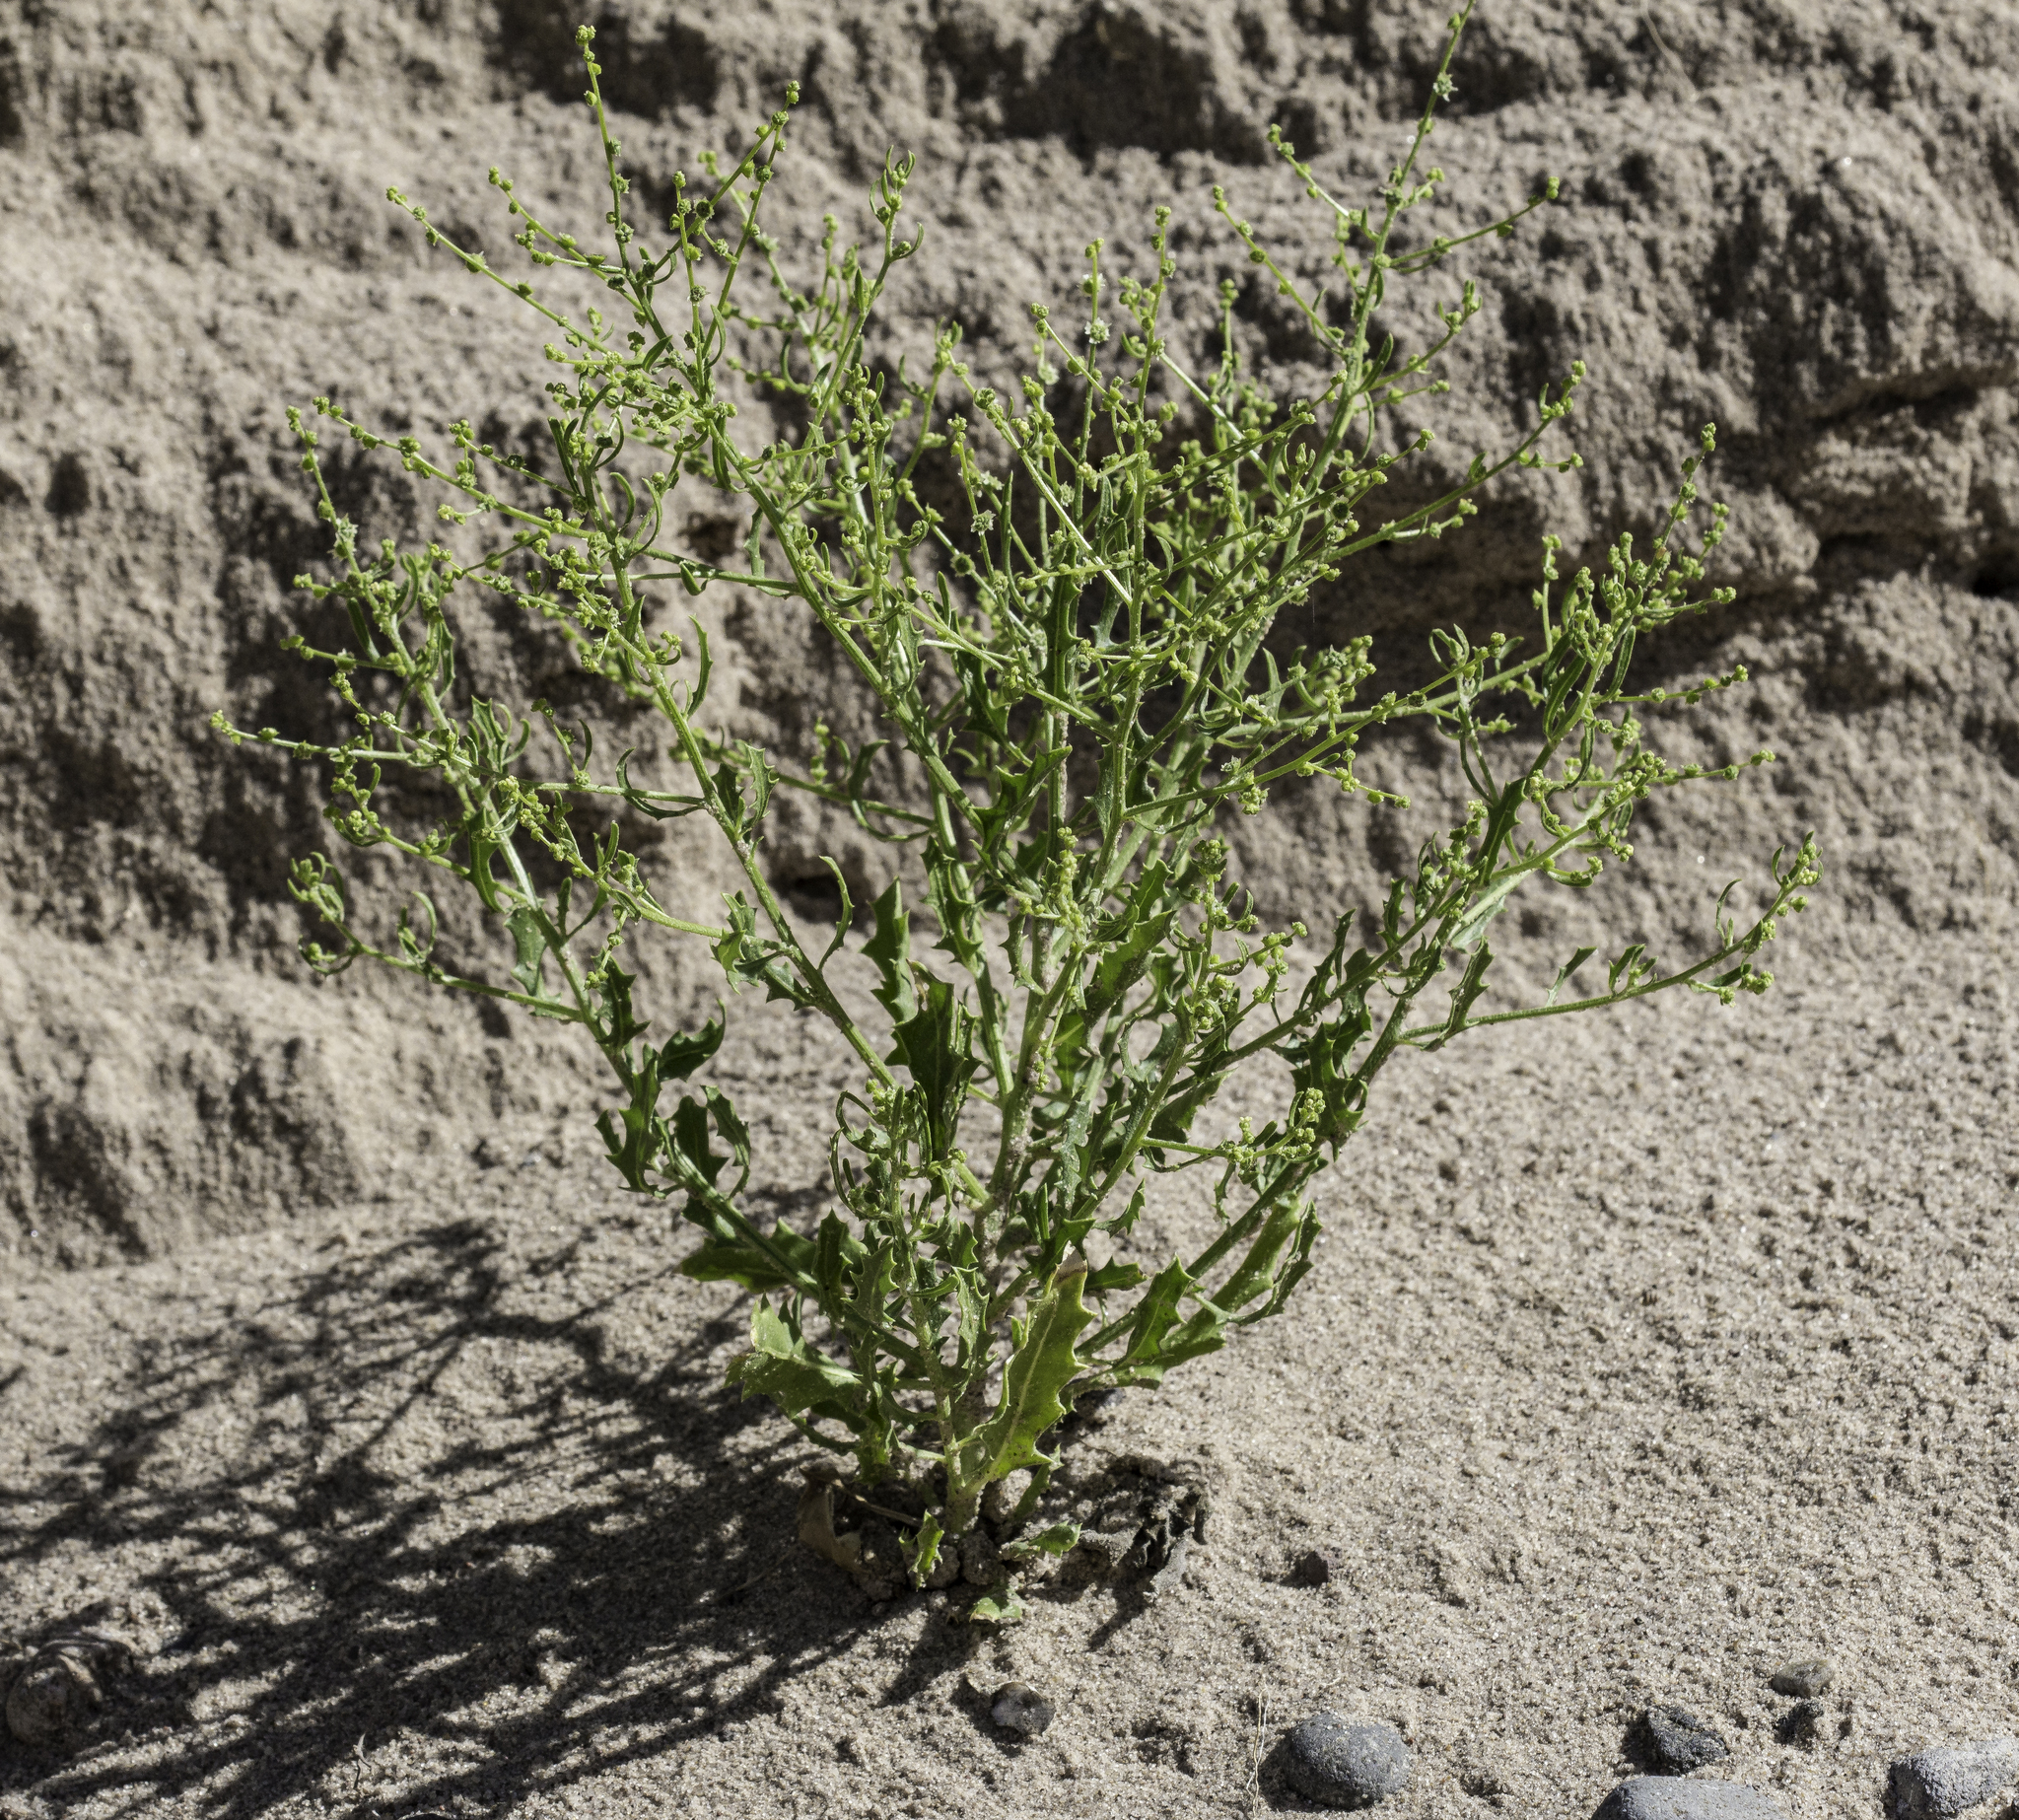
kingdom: Plantae
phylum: Tracheophyta
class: Magnoliopsida
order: Caryophyllales
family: Amaranthaceae
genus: Dysphania
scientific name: Dysphania atriplicifolia
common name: Plains tumbleweed
